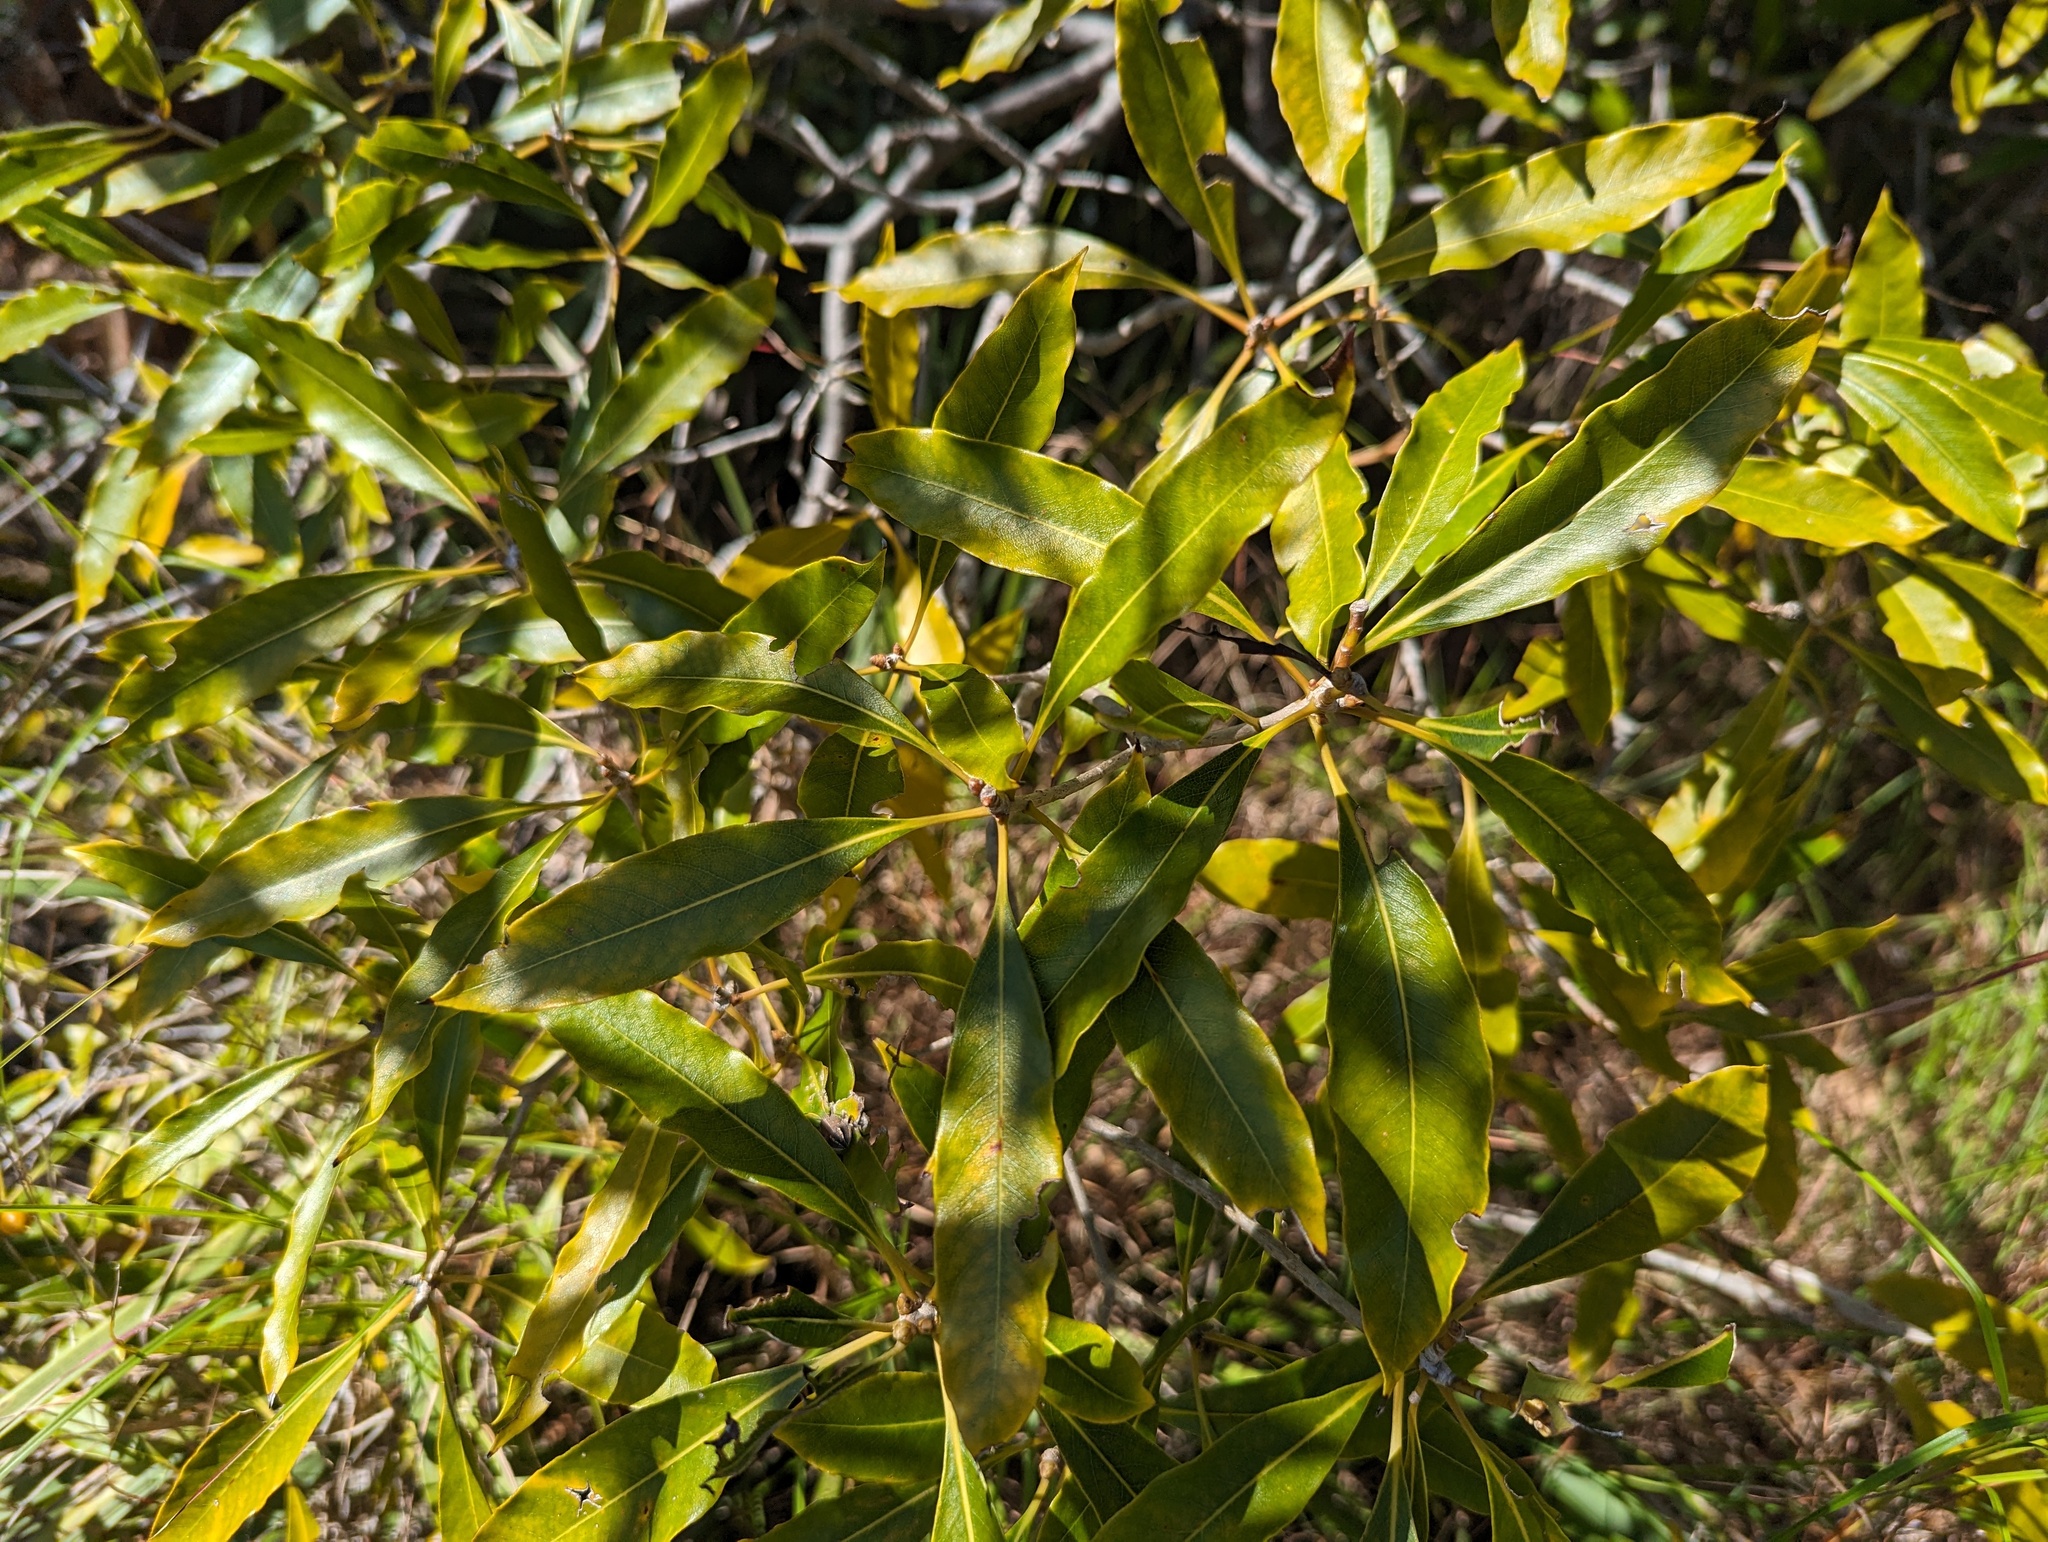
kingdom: Plantae
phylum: Tracheophyta
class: Magnoliopsida
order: Apiales
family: Pittosporaceae
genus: Pittosporum
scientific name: Pittosporum undulatum
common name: Australian cheesewood
